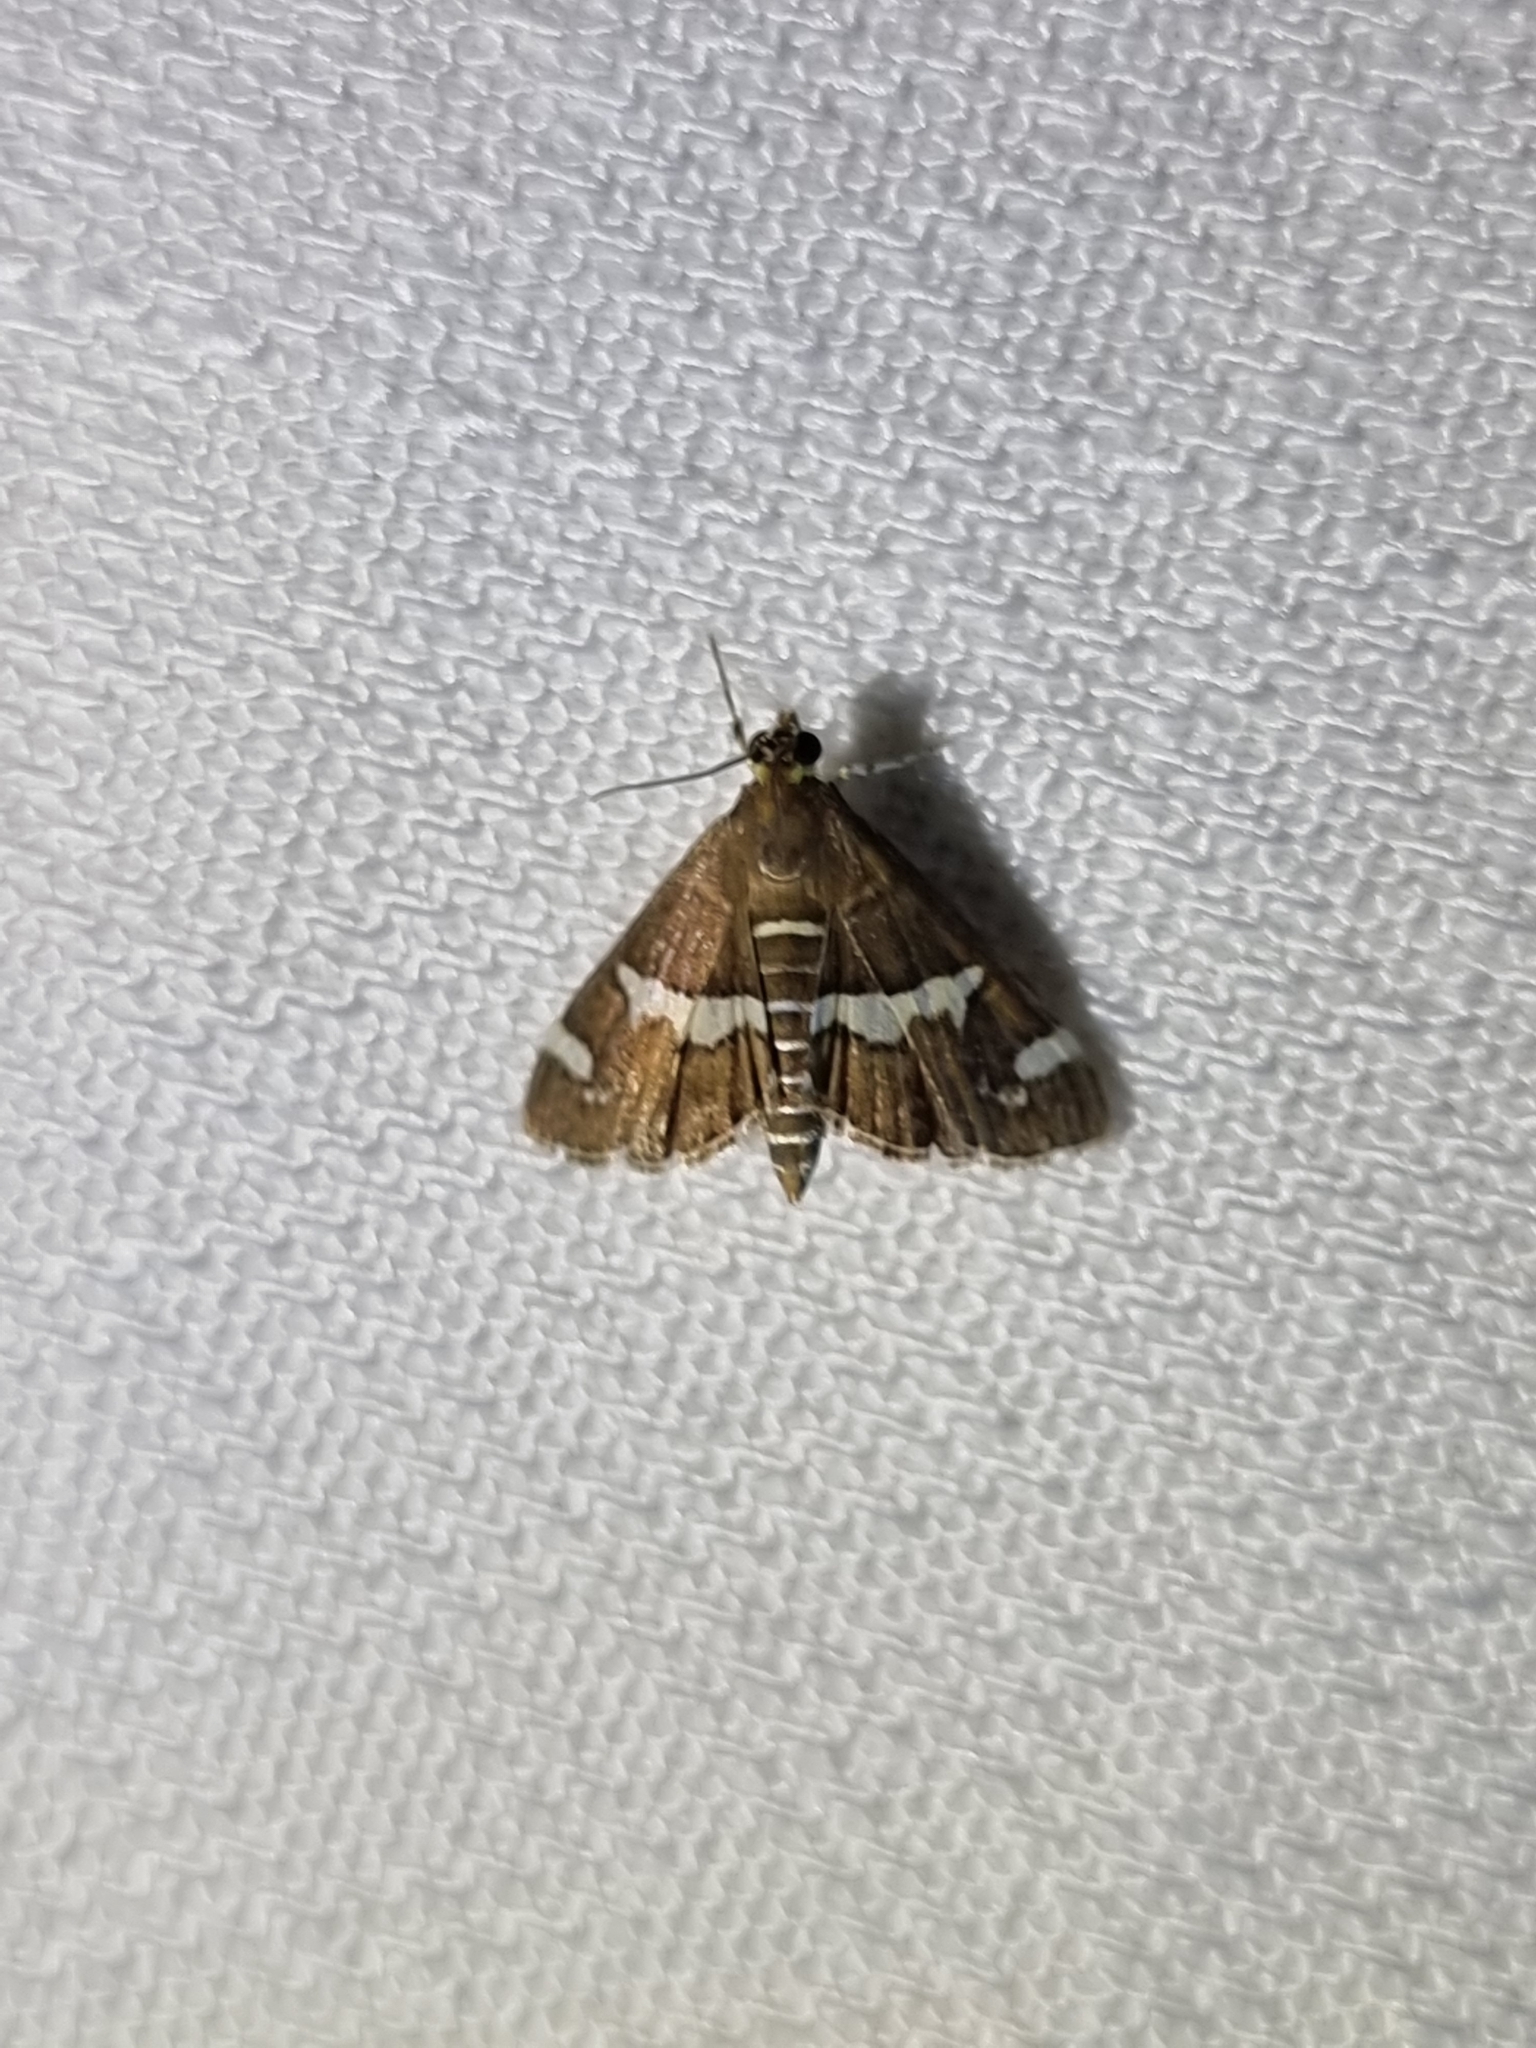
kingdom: Animalia
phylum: Arthropoda
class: Insecta
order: Lepidoptera
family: Crambidae
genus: Spoladea
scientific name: Spoladea recurvalis
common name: Beet webworm moth
